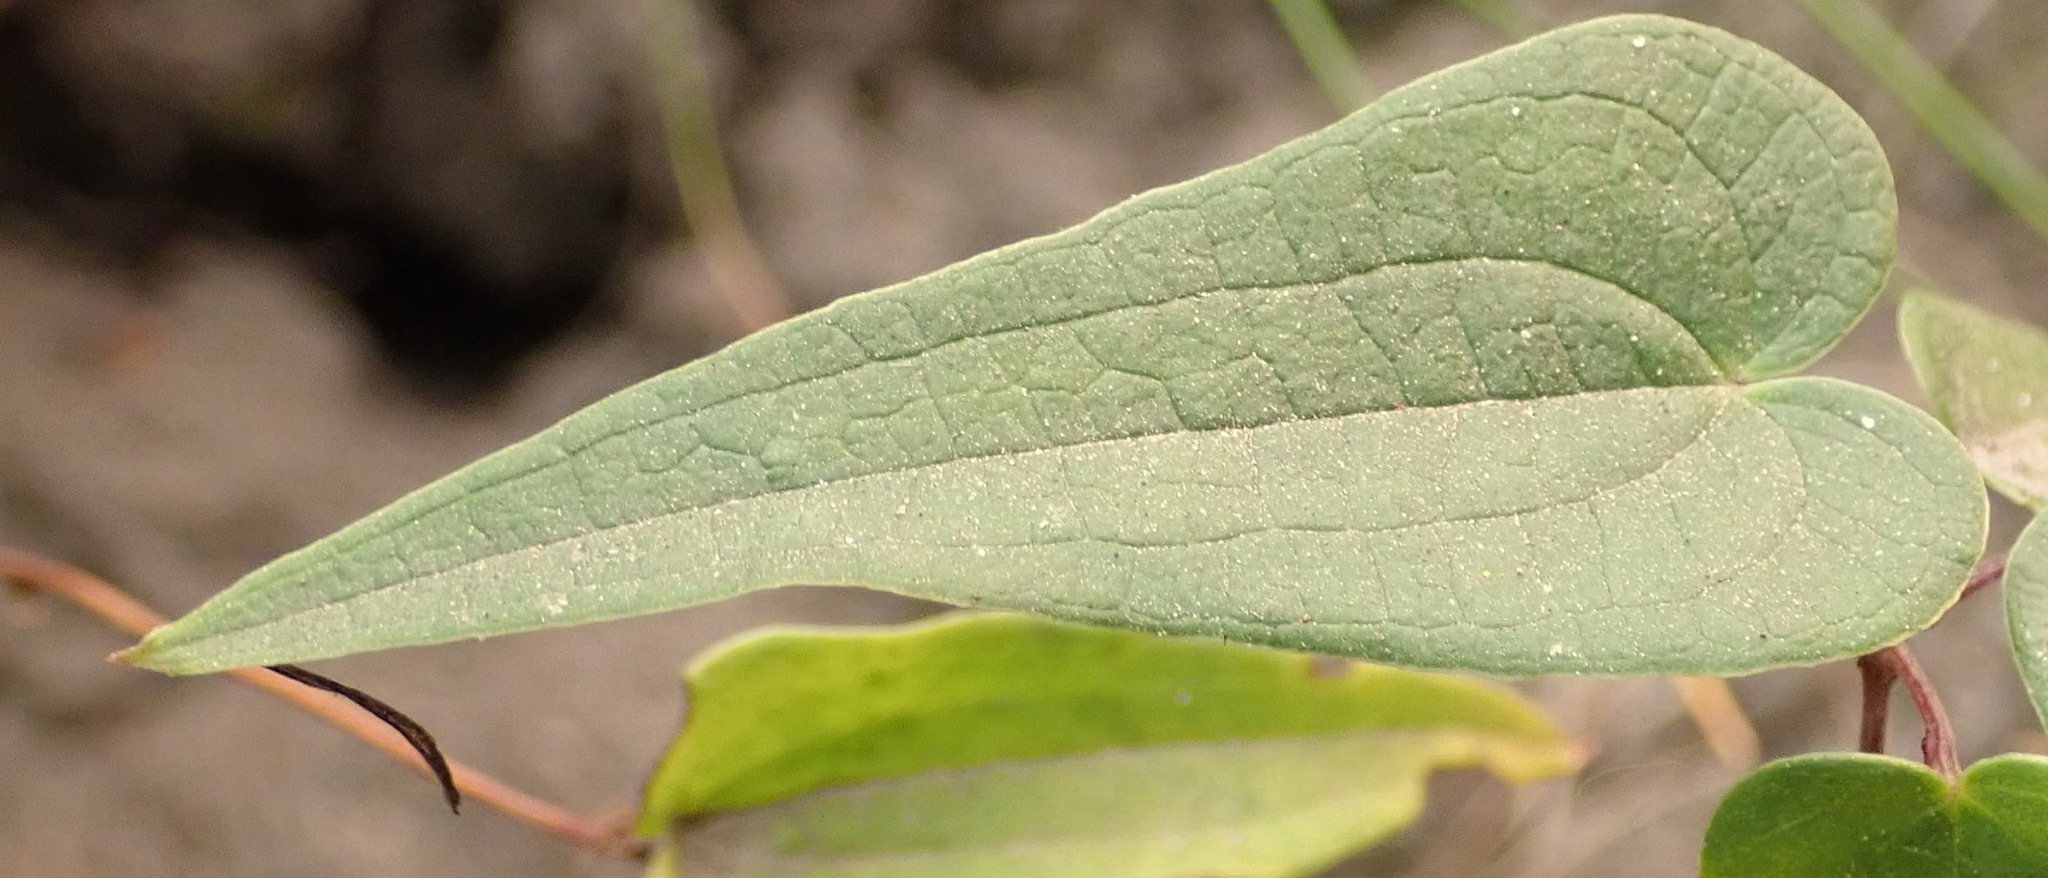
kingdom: Plantae
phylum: Tracheophyta
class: Liliopsida
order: Dioscoreales
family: Dioscoreaceae
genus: Dioscorea
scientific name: Dioscorea burchellii
